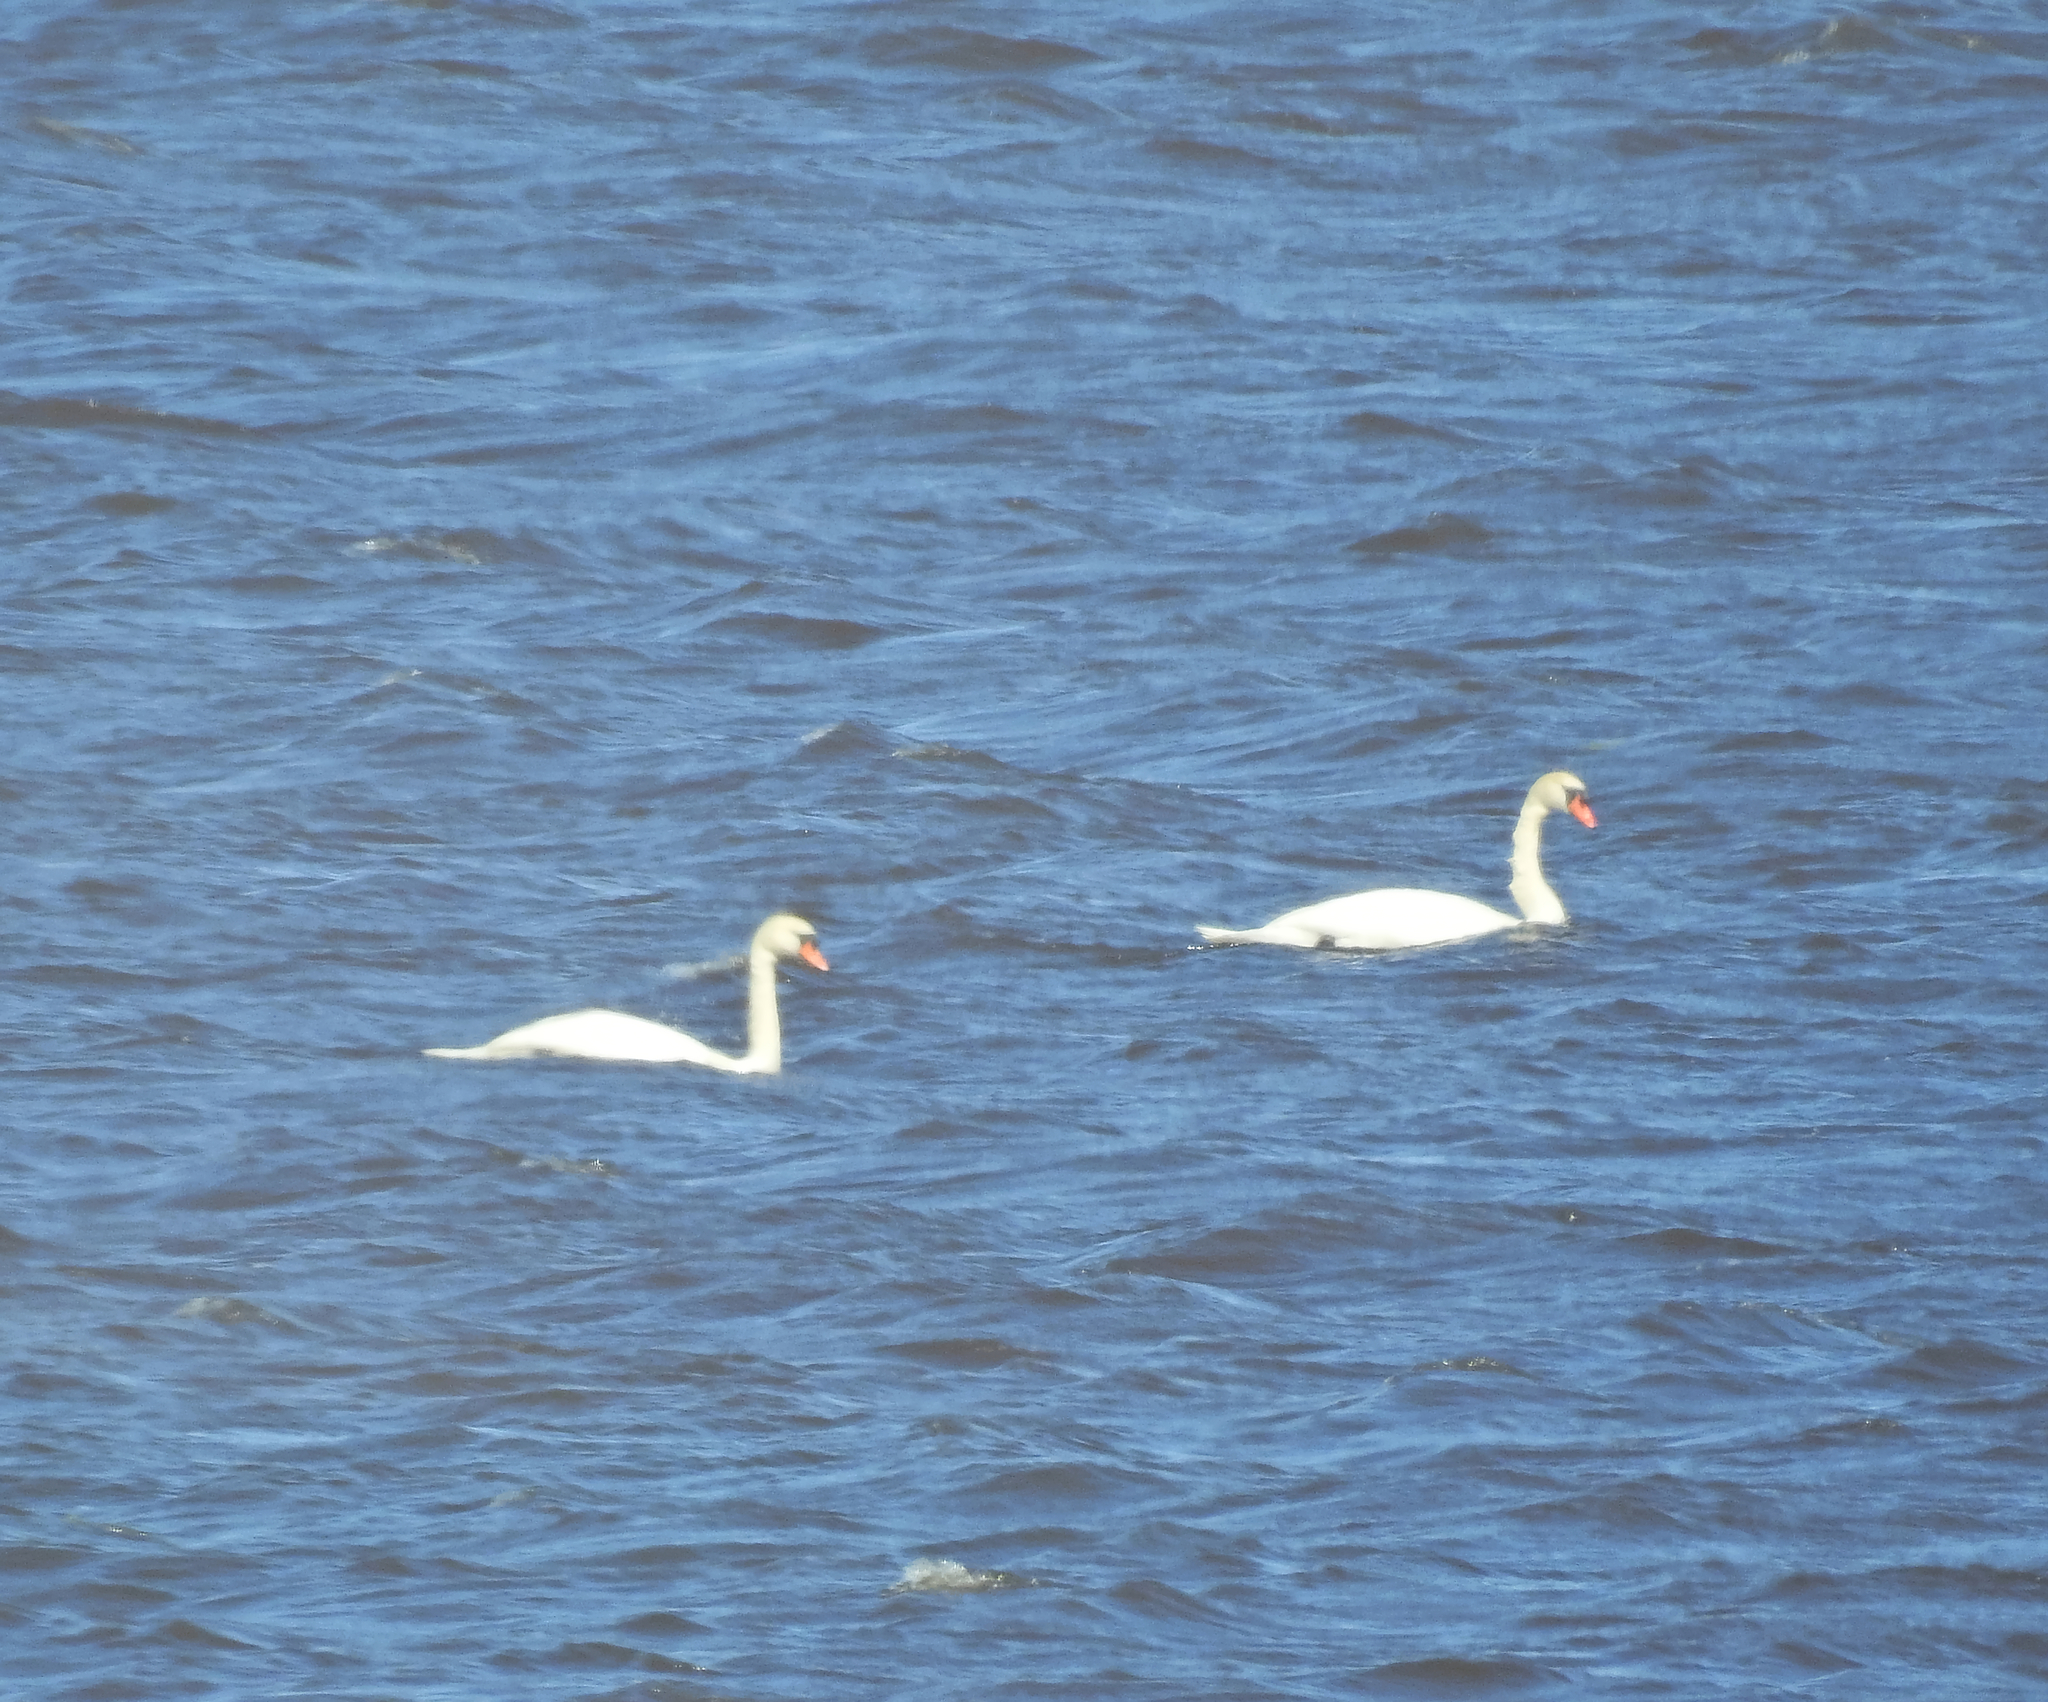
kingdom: Animalia
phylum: Chordata
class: Aves
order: Anseriformes
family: Anatidae
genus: Cygnus
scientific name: Cygnus olor
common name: Mute swan
